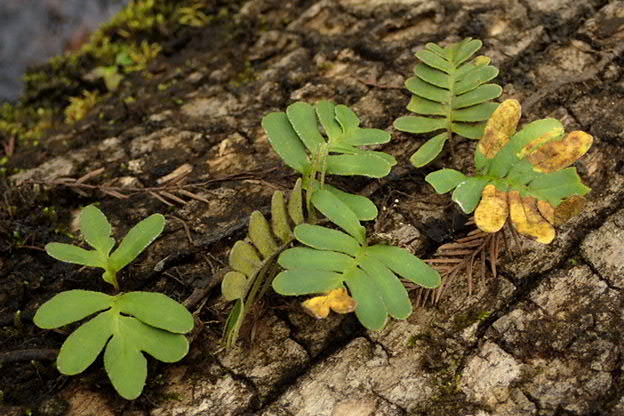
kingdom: Plantae
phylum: Tracheophyta
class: Polypodiopsida
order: Polypodiales
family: Polypodiaceae
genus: Pleopeltis
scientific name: Pleopeltis michauxiana
